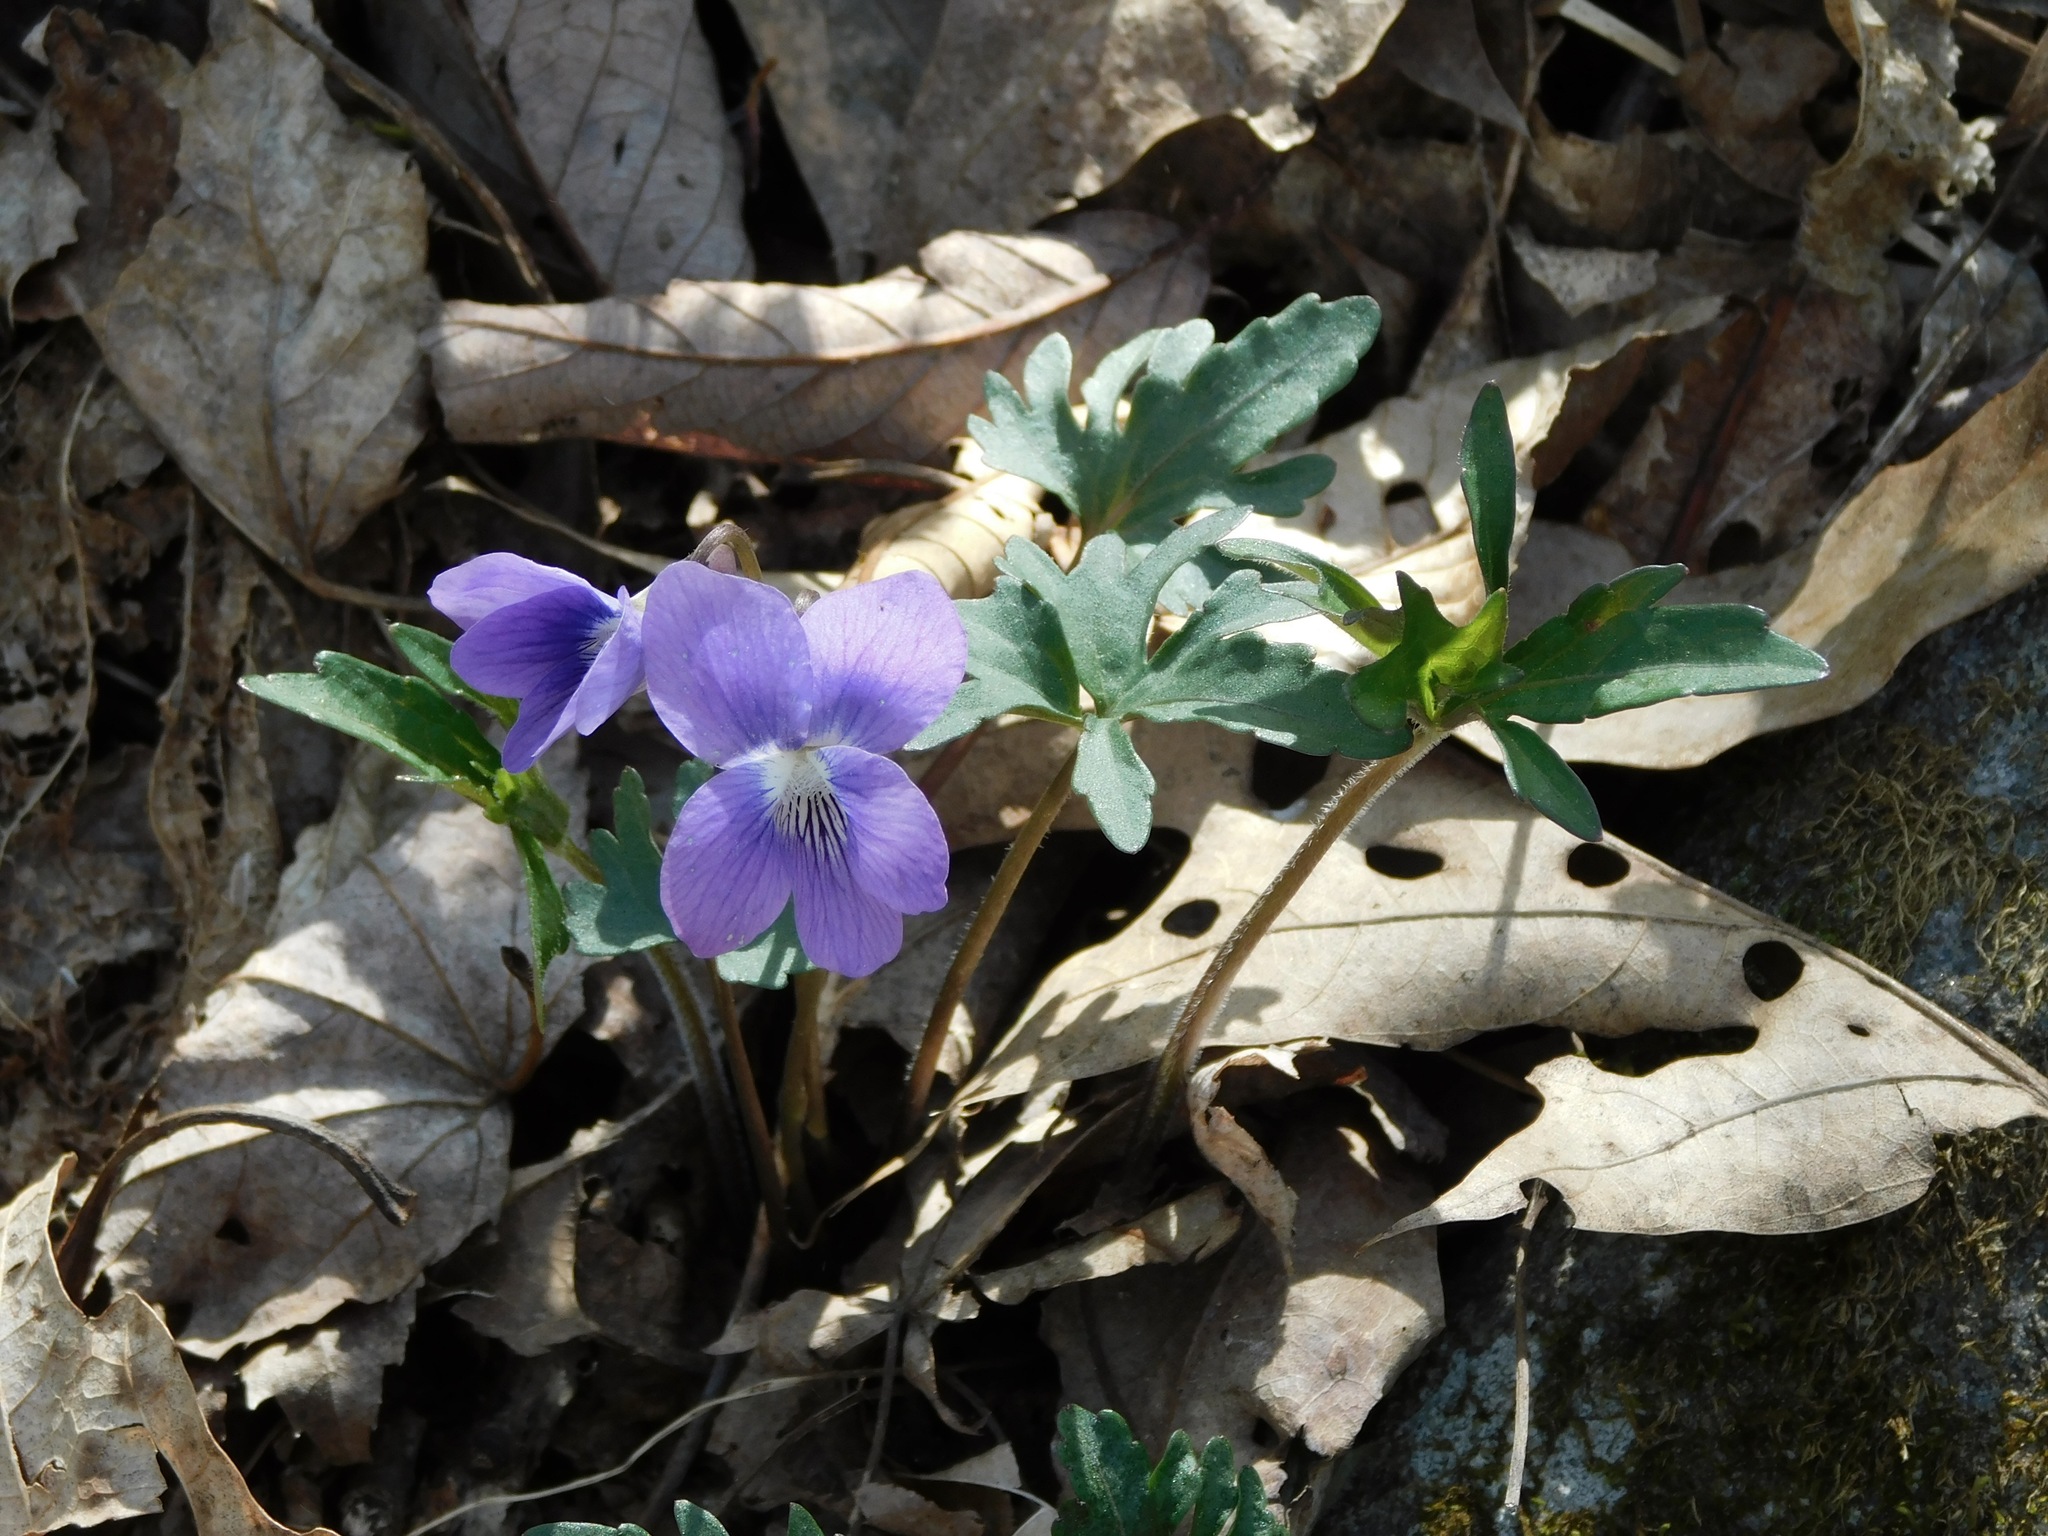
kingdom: Plantae
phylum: Tracheophyta
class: Magnoliopsida
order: Malpighiales
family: Violaceae
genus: Viola
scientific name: Viola palmata
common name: Early blue violet
